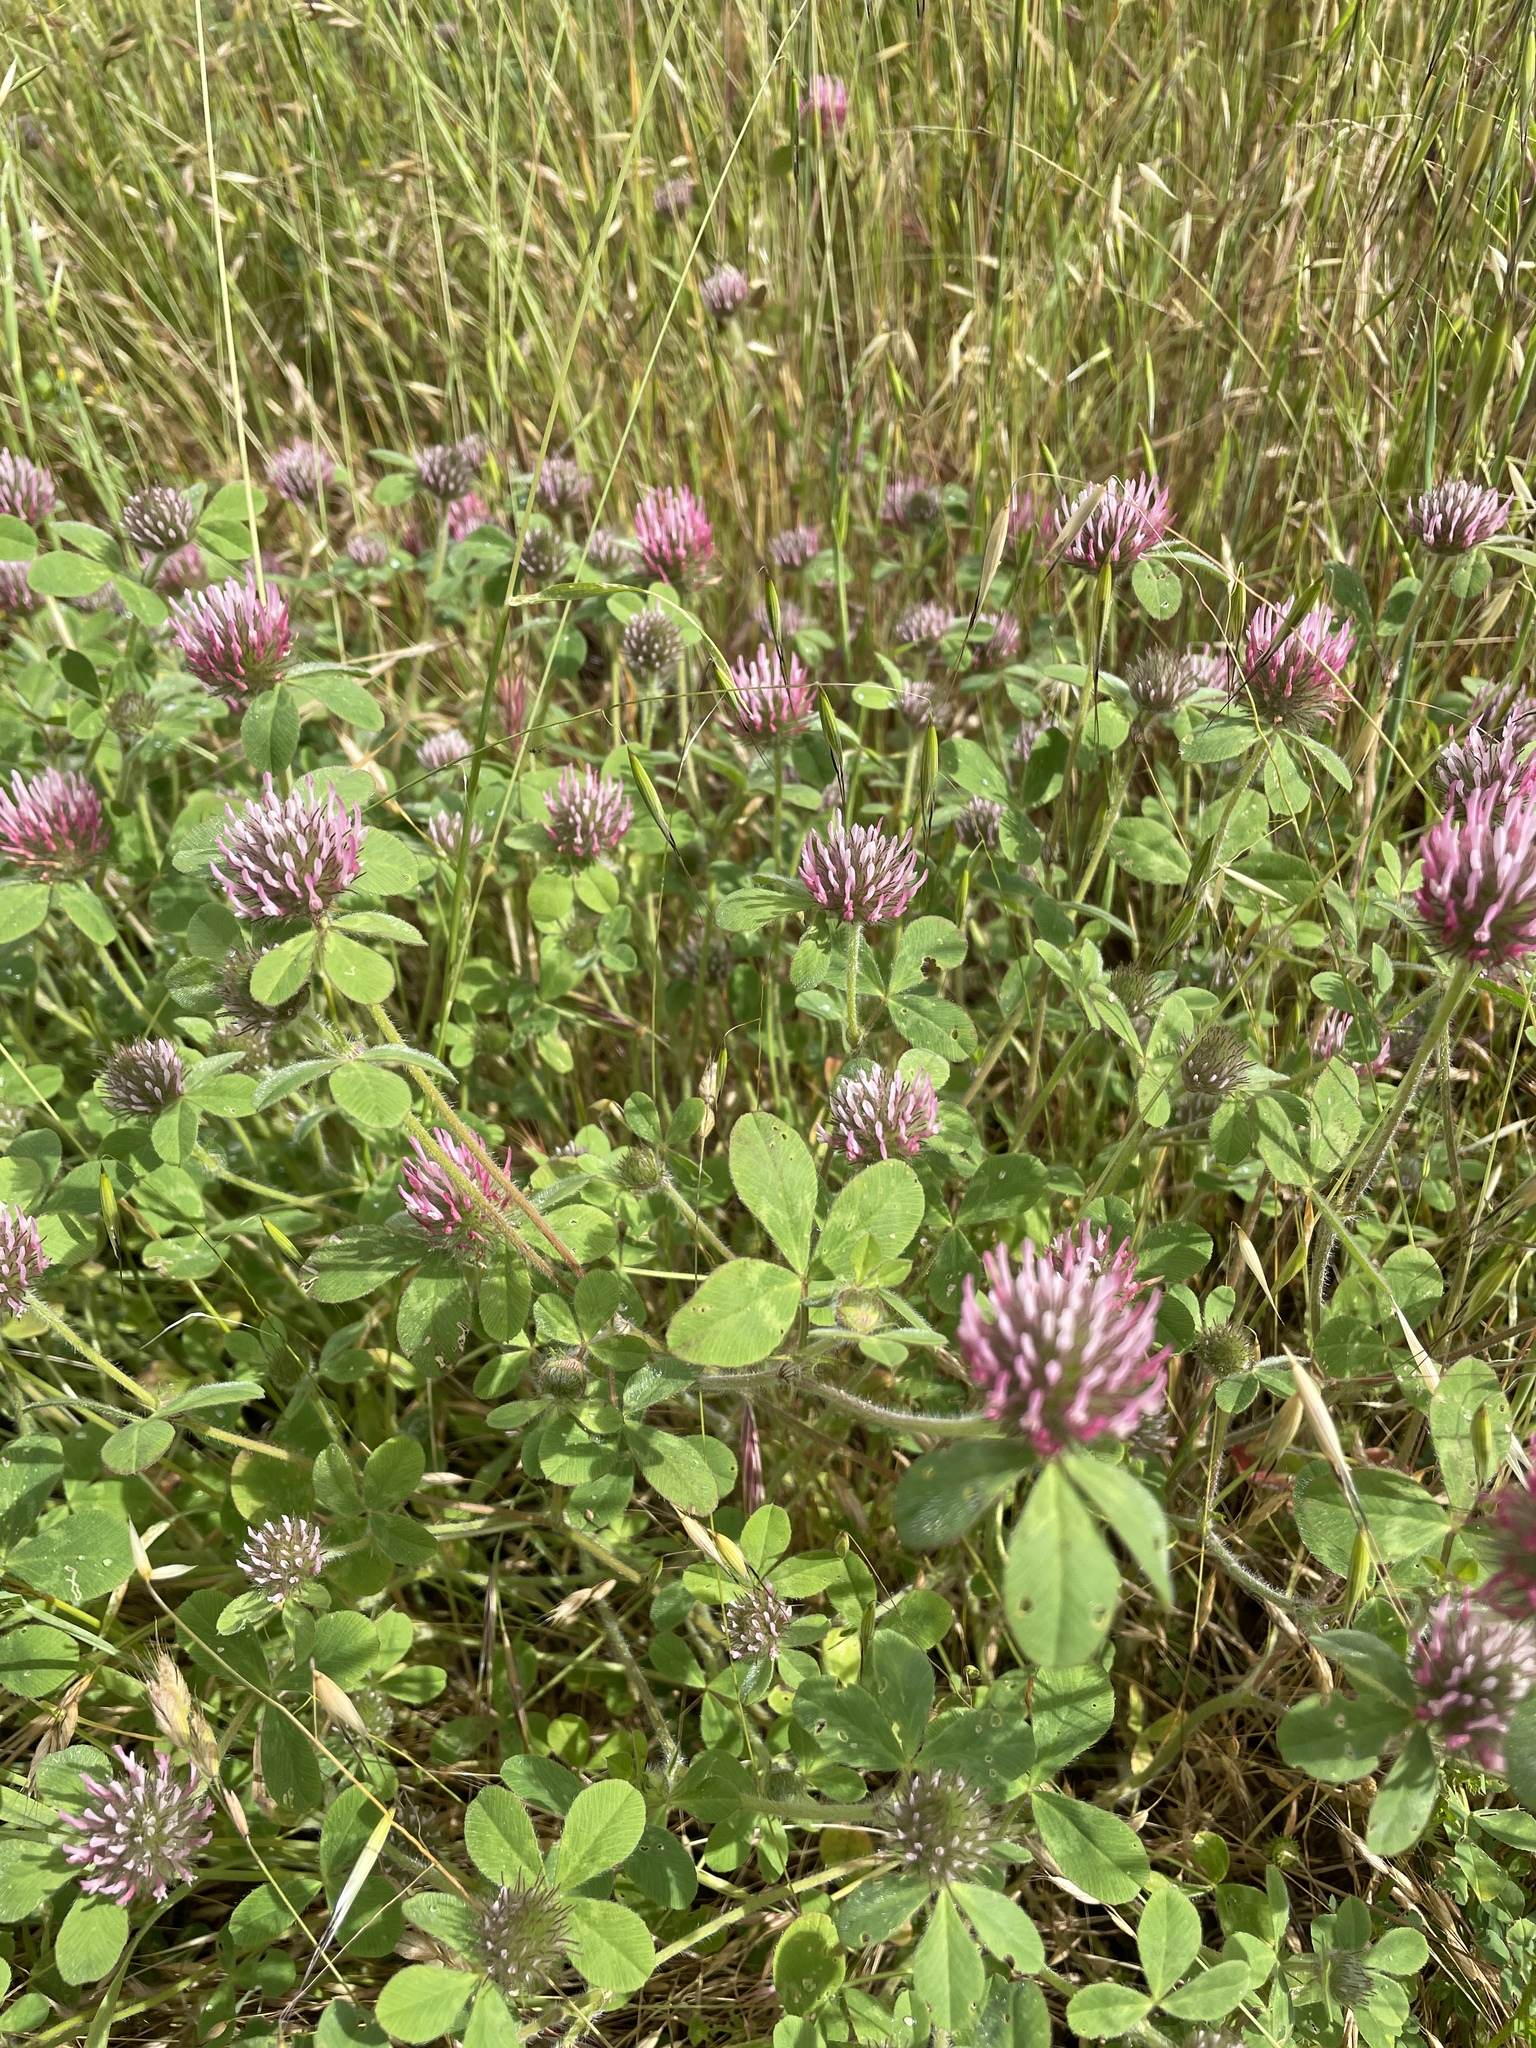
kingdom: Plantae
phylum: Tracheophyta
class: Magnoliopsida
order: Fabales
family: Fabaceae
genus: Trifolium
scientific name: Trifolium hirtum
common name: Rose clover
